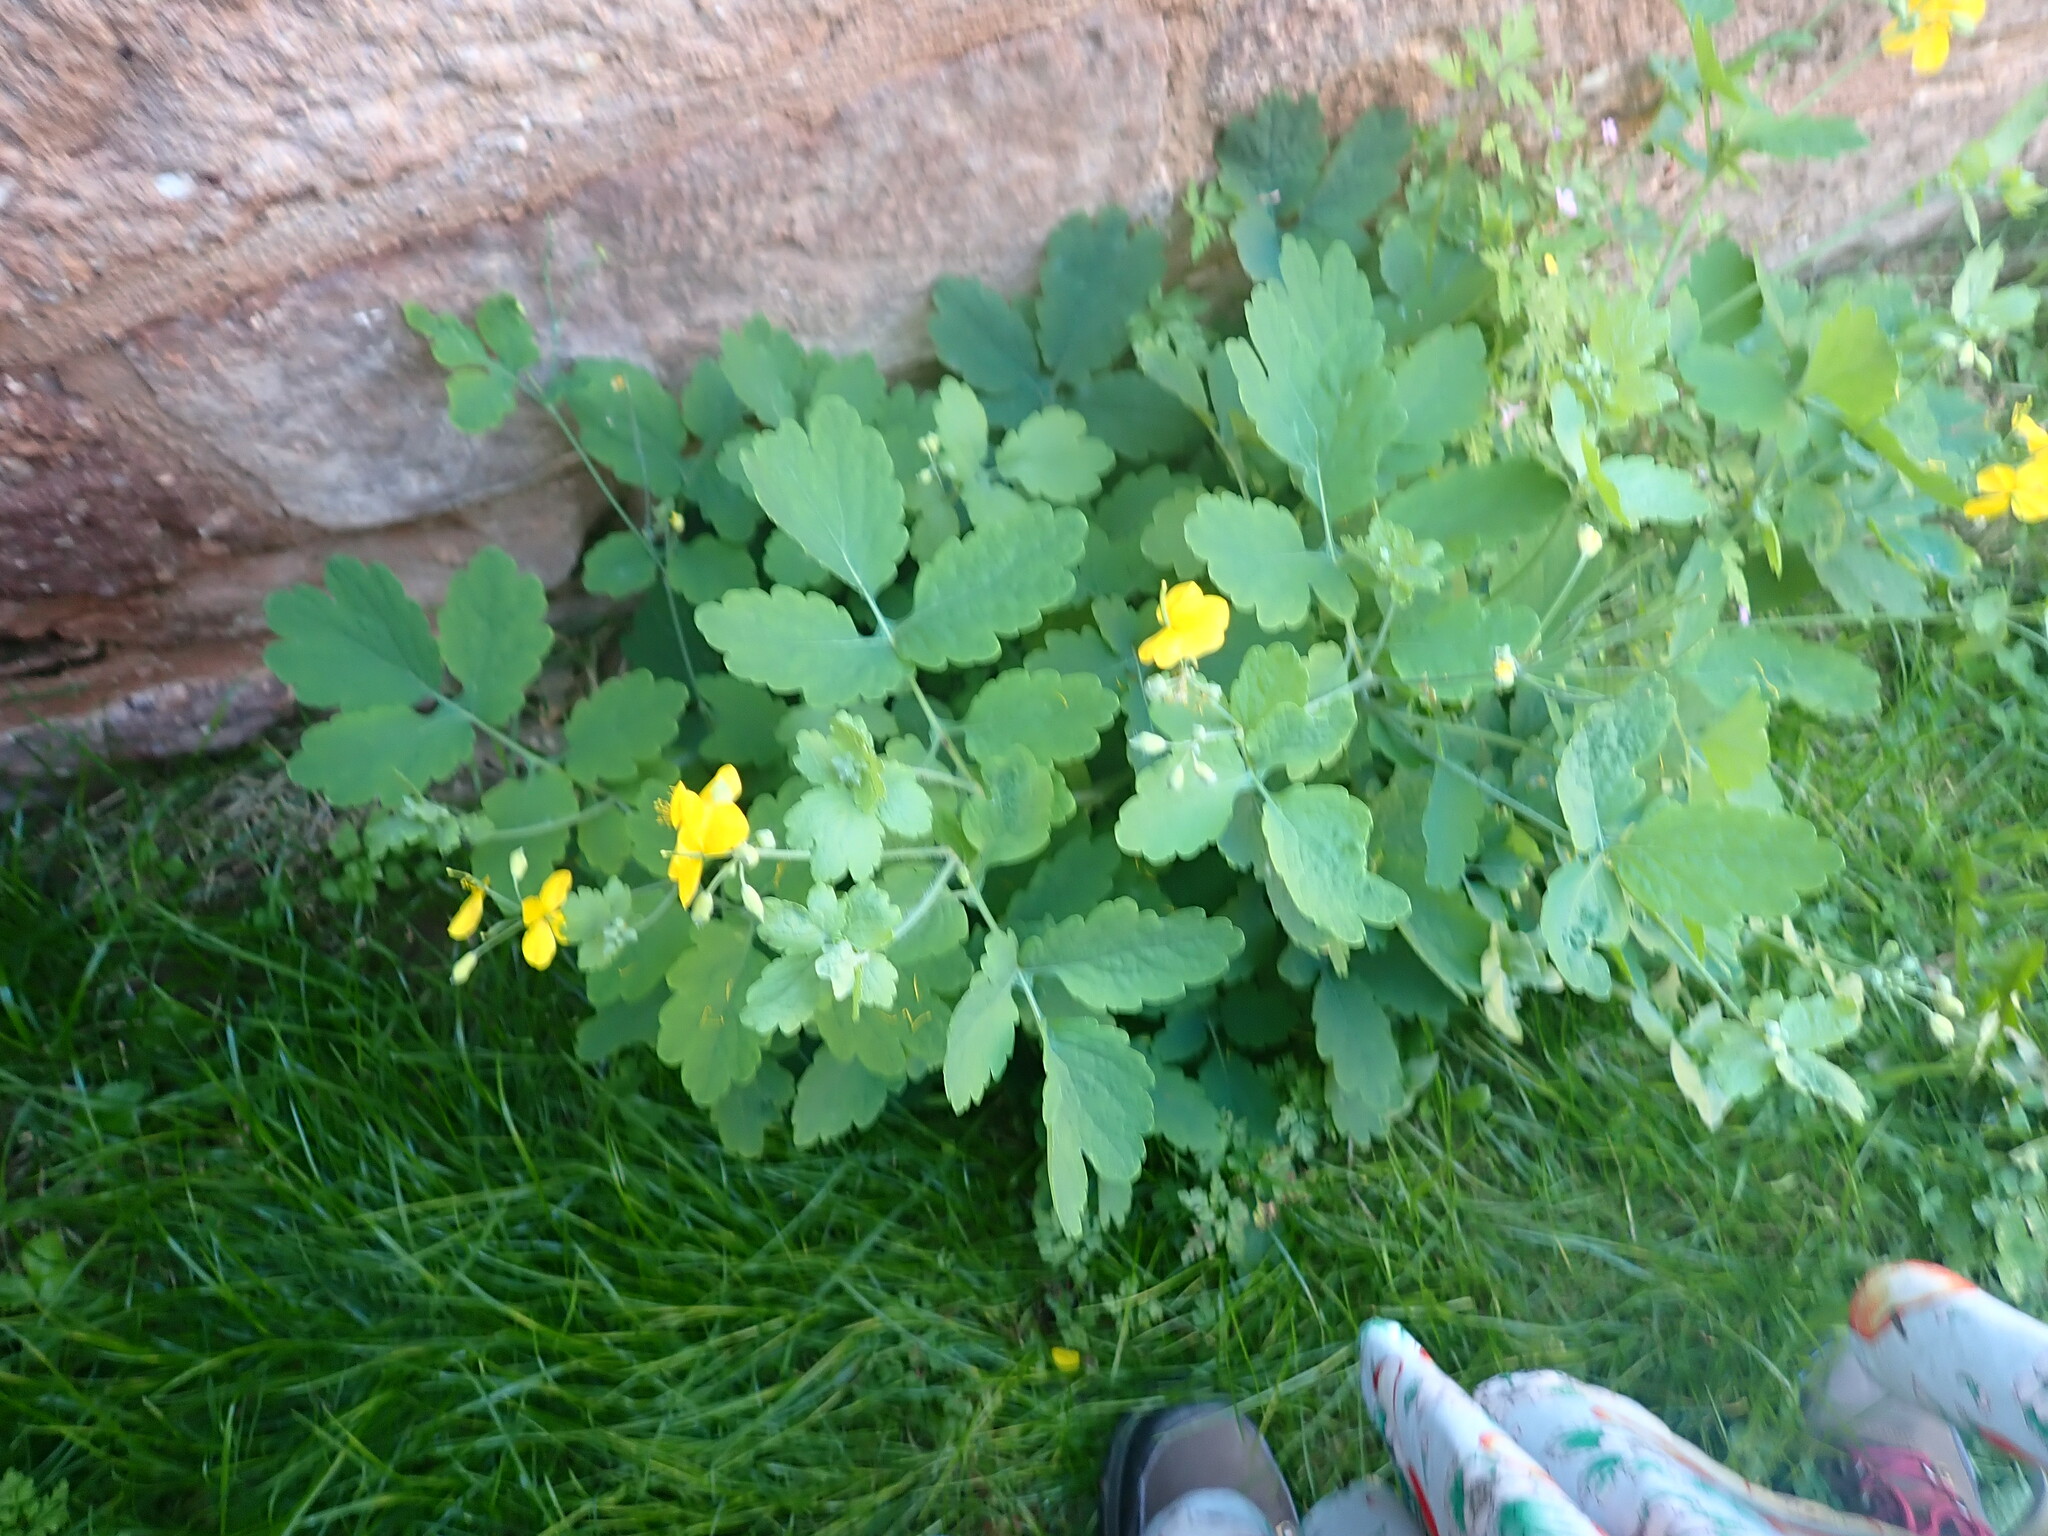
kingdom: Plantae
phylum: Tracheophyta
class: Magnoliopsida
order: Ranunculales
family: Papaveraceae
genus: Chelidonium
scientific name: Chelidonium majus
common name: Greater celandine
